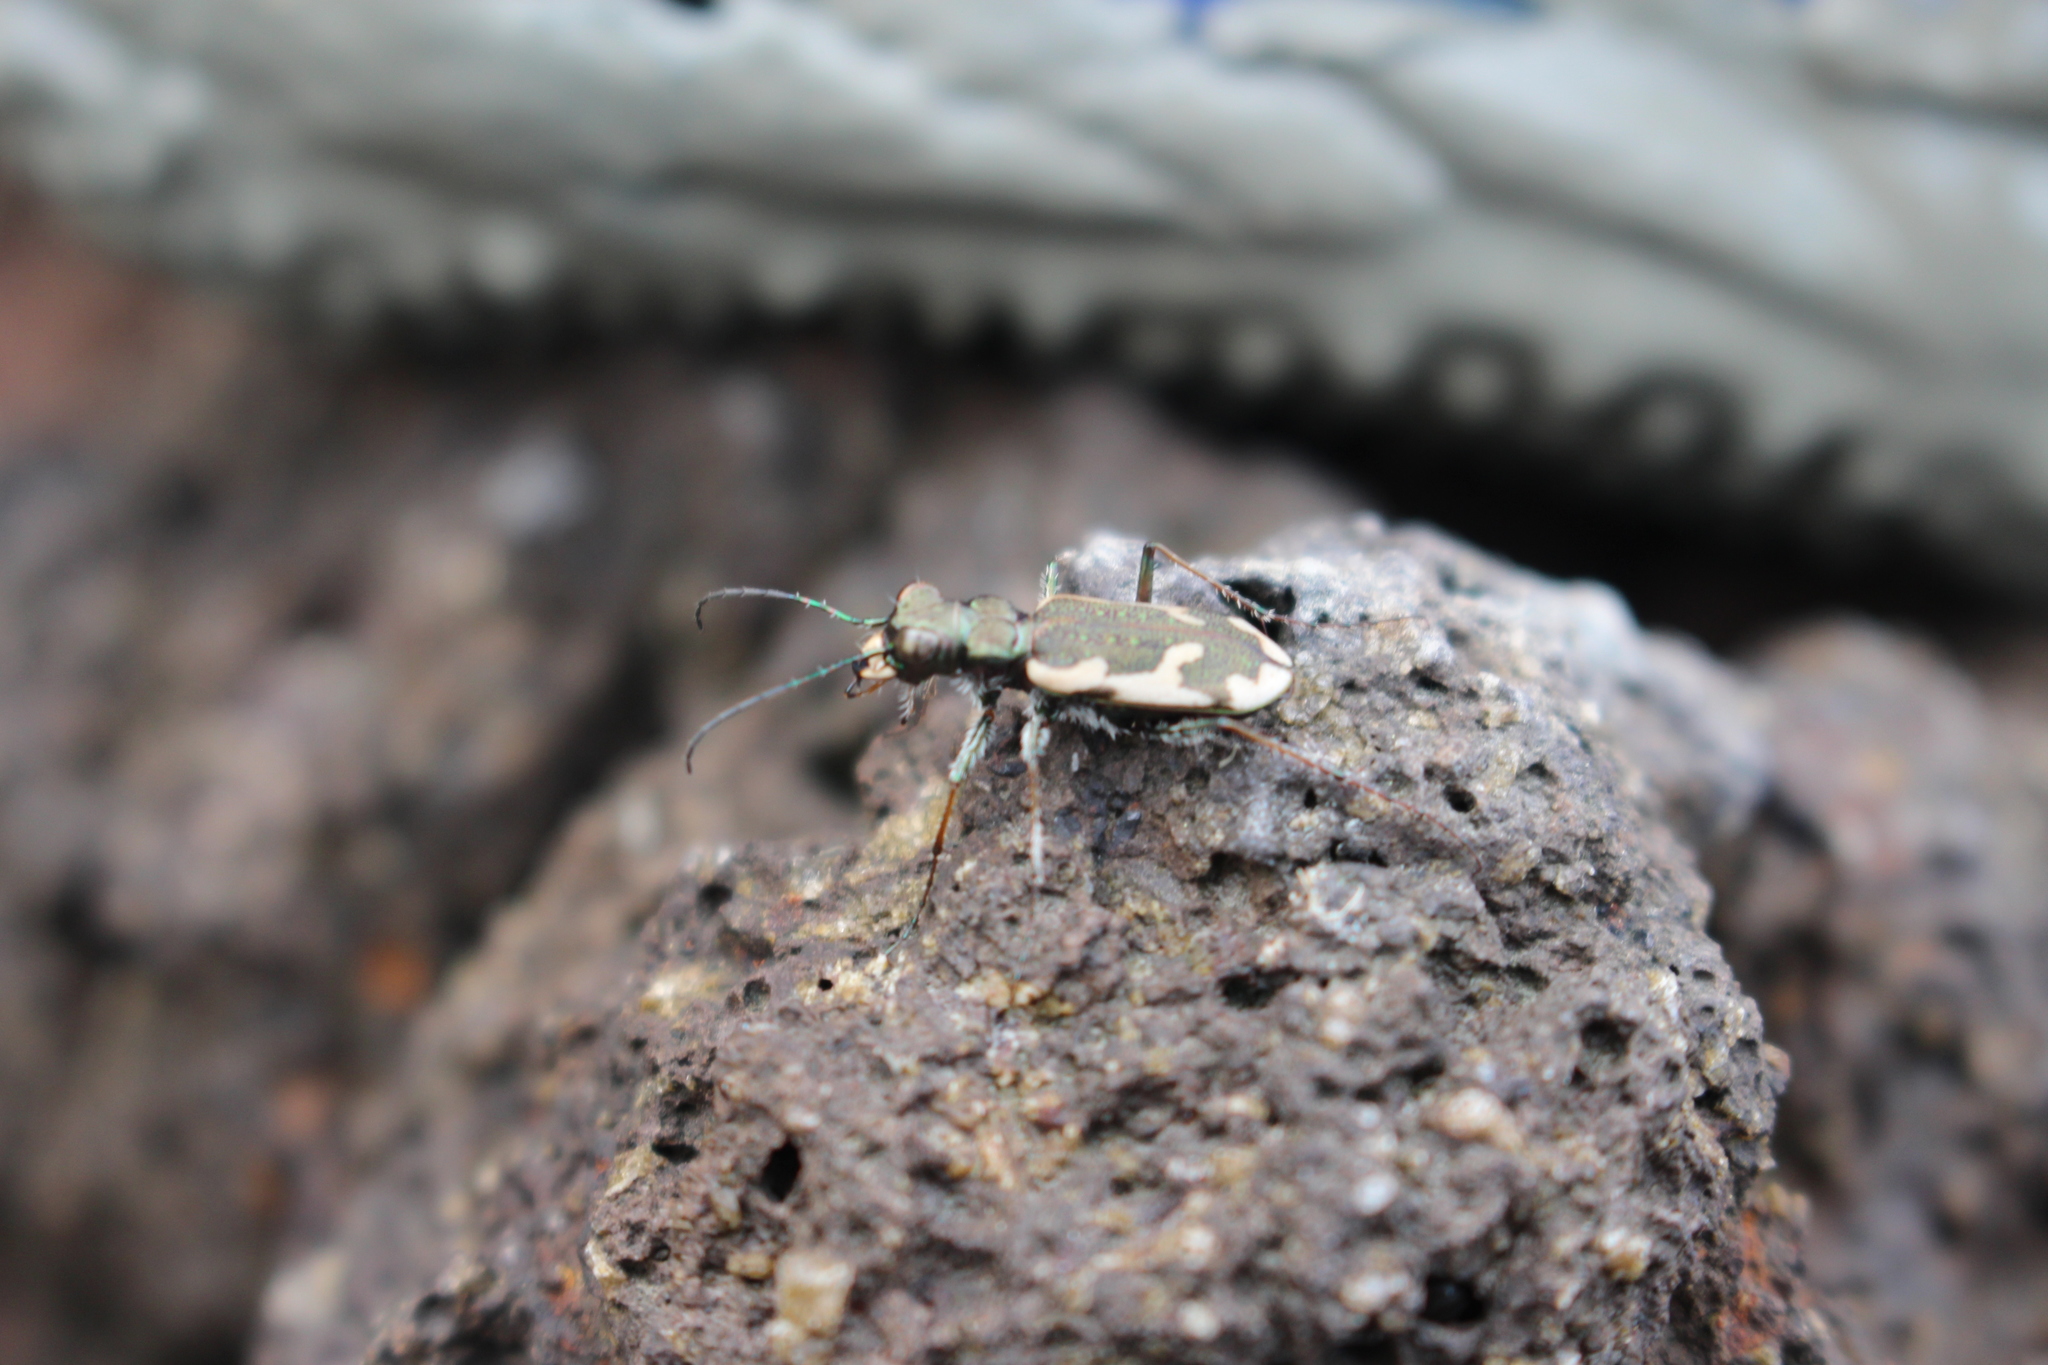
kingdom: Animalia
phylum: Arthropoda
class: Insecta
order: Coleoptera
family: Carabidae
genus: Neocicindela
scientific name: Neocicindela latecincta
